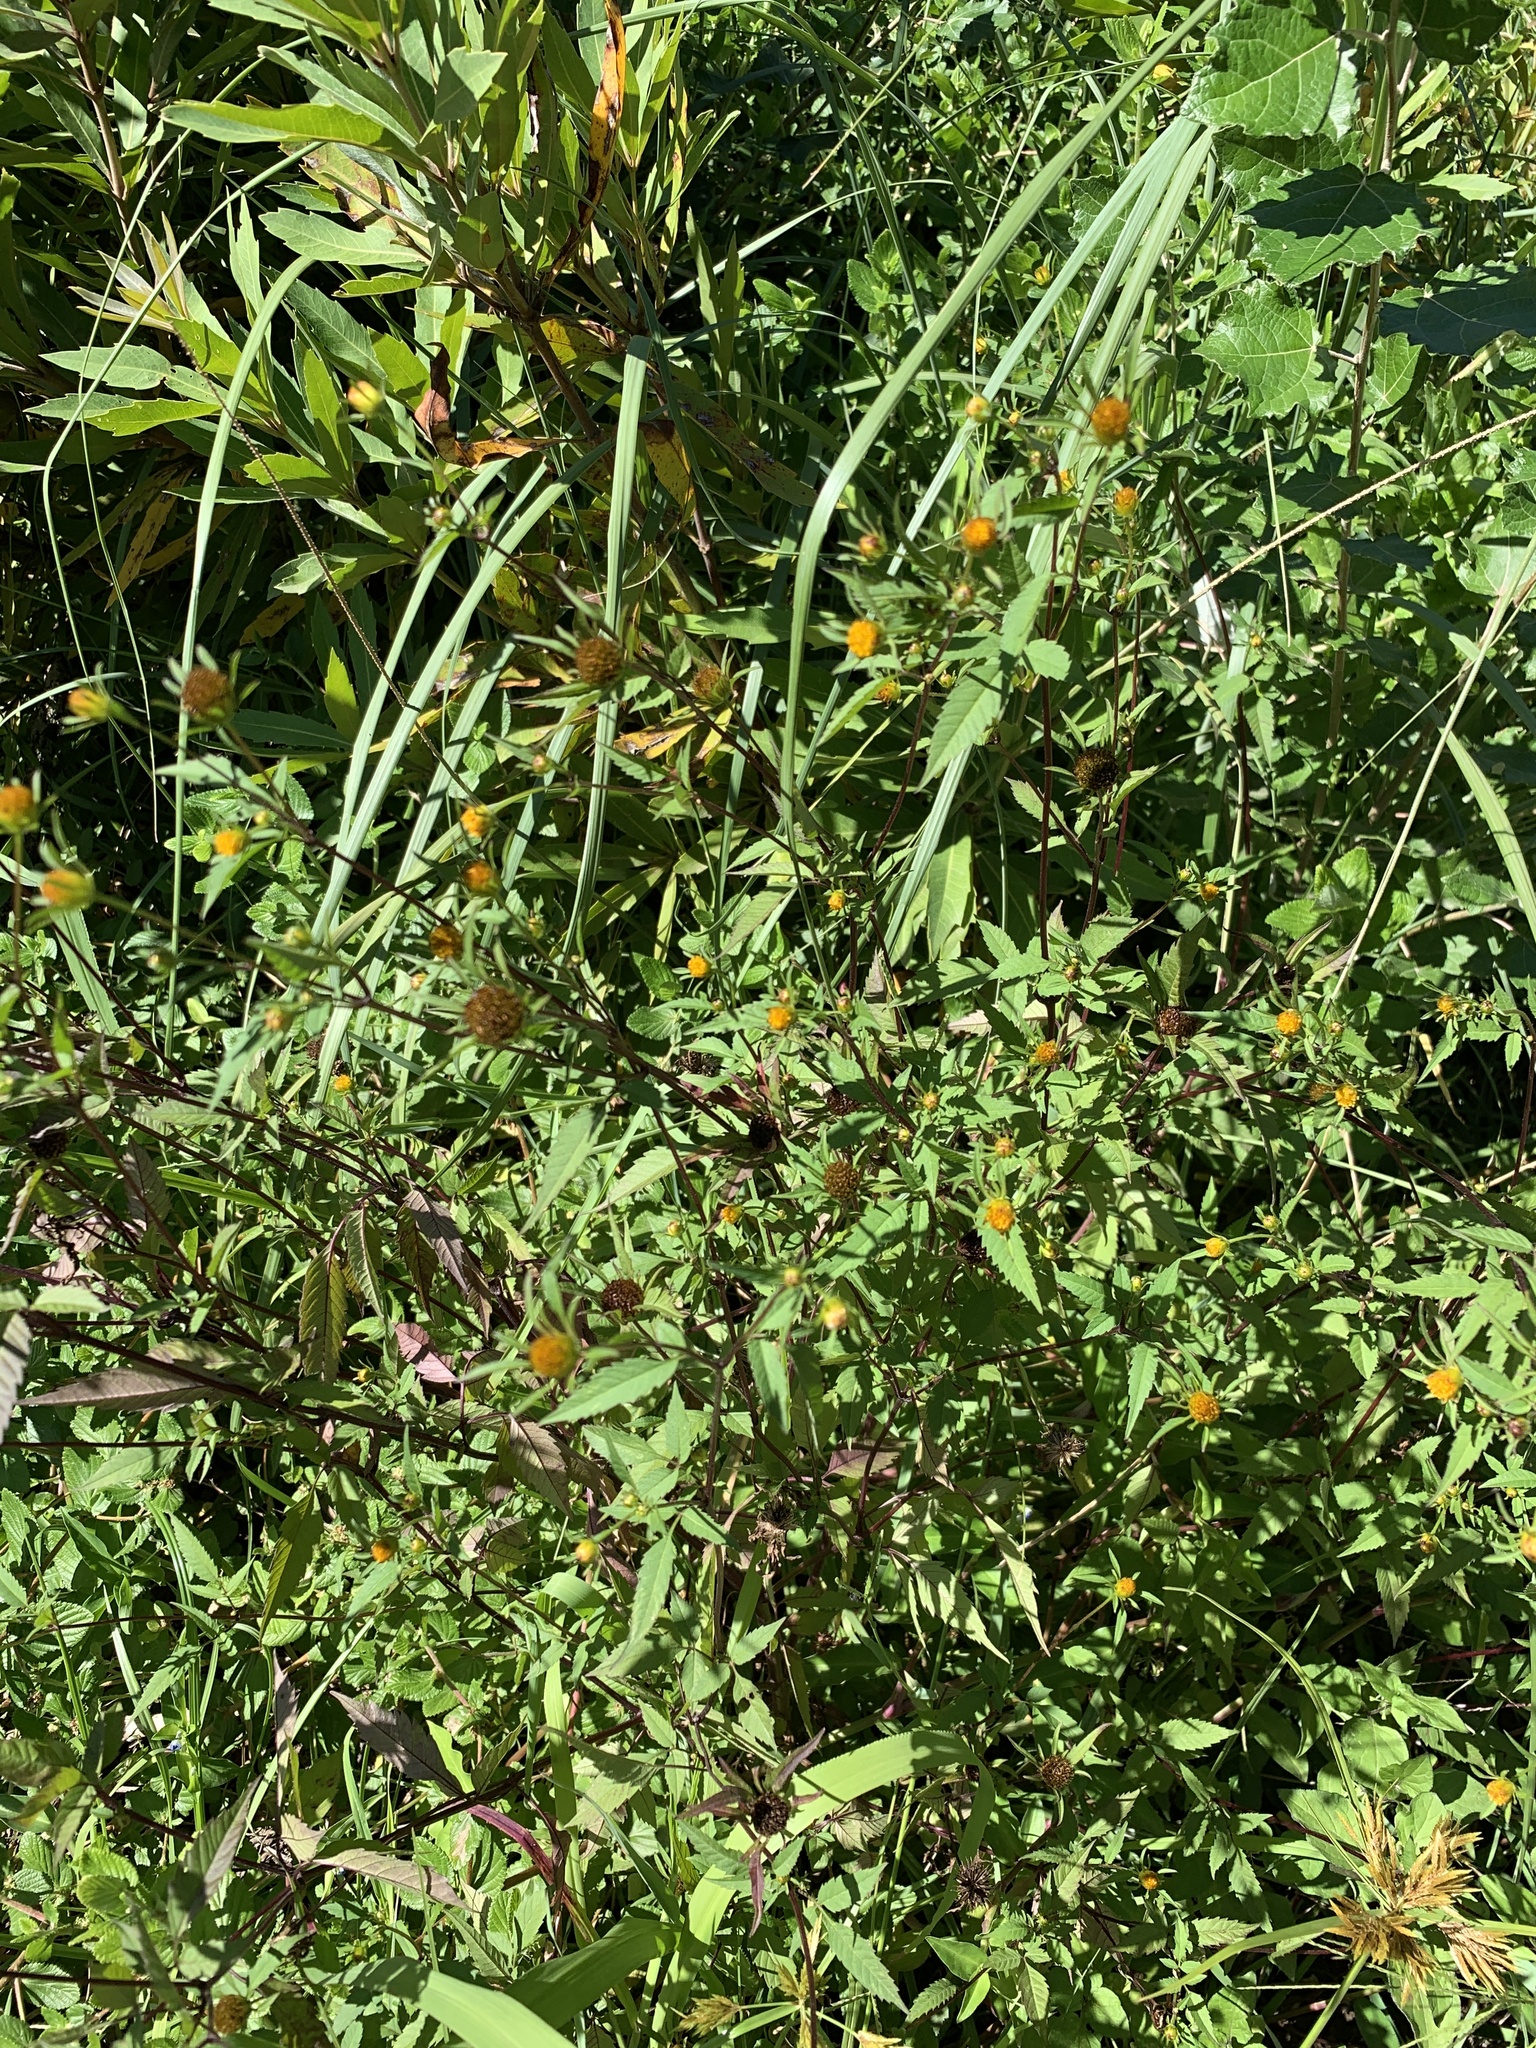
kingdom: Plantae
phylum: Tracheophyta
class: Magnoliopsida
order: Asterales
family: Asteraceae
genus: Bidens
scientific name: Bidens frondosa
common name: Beggarticks
